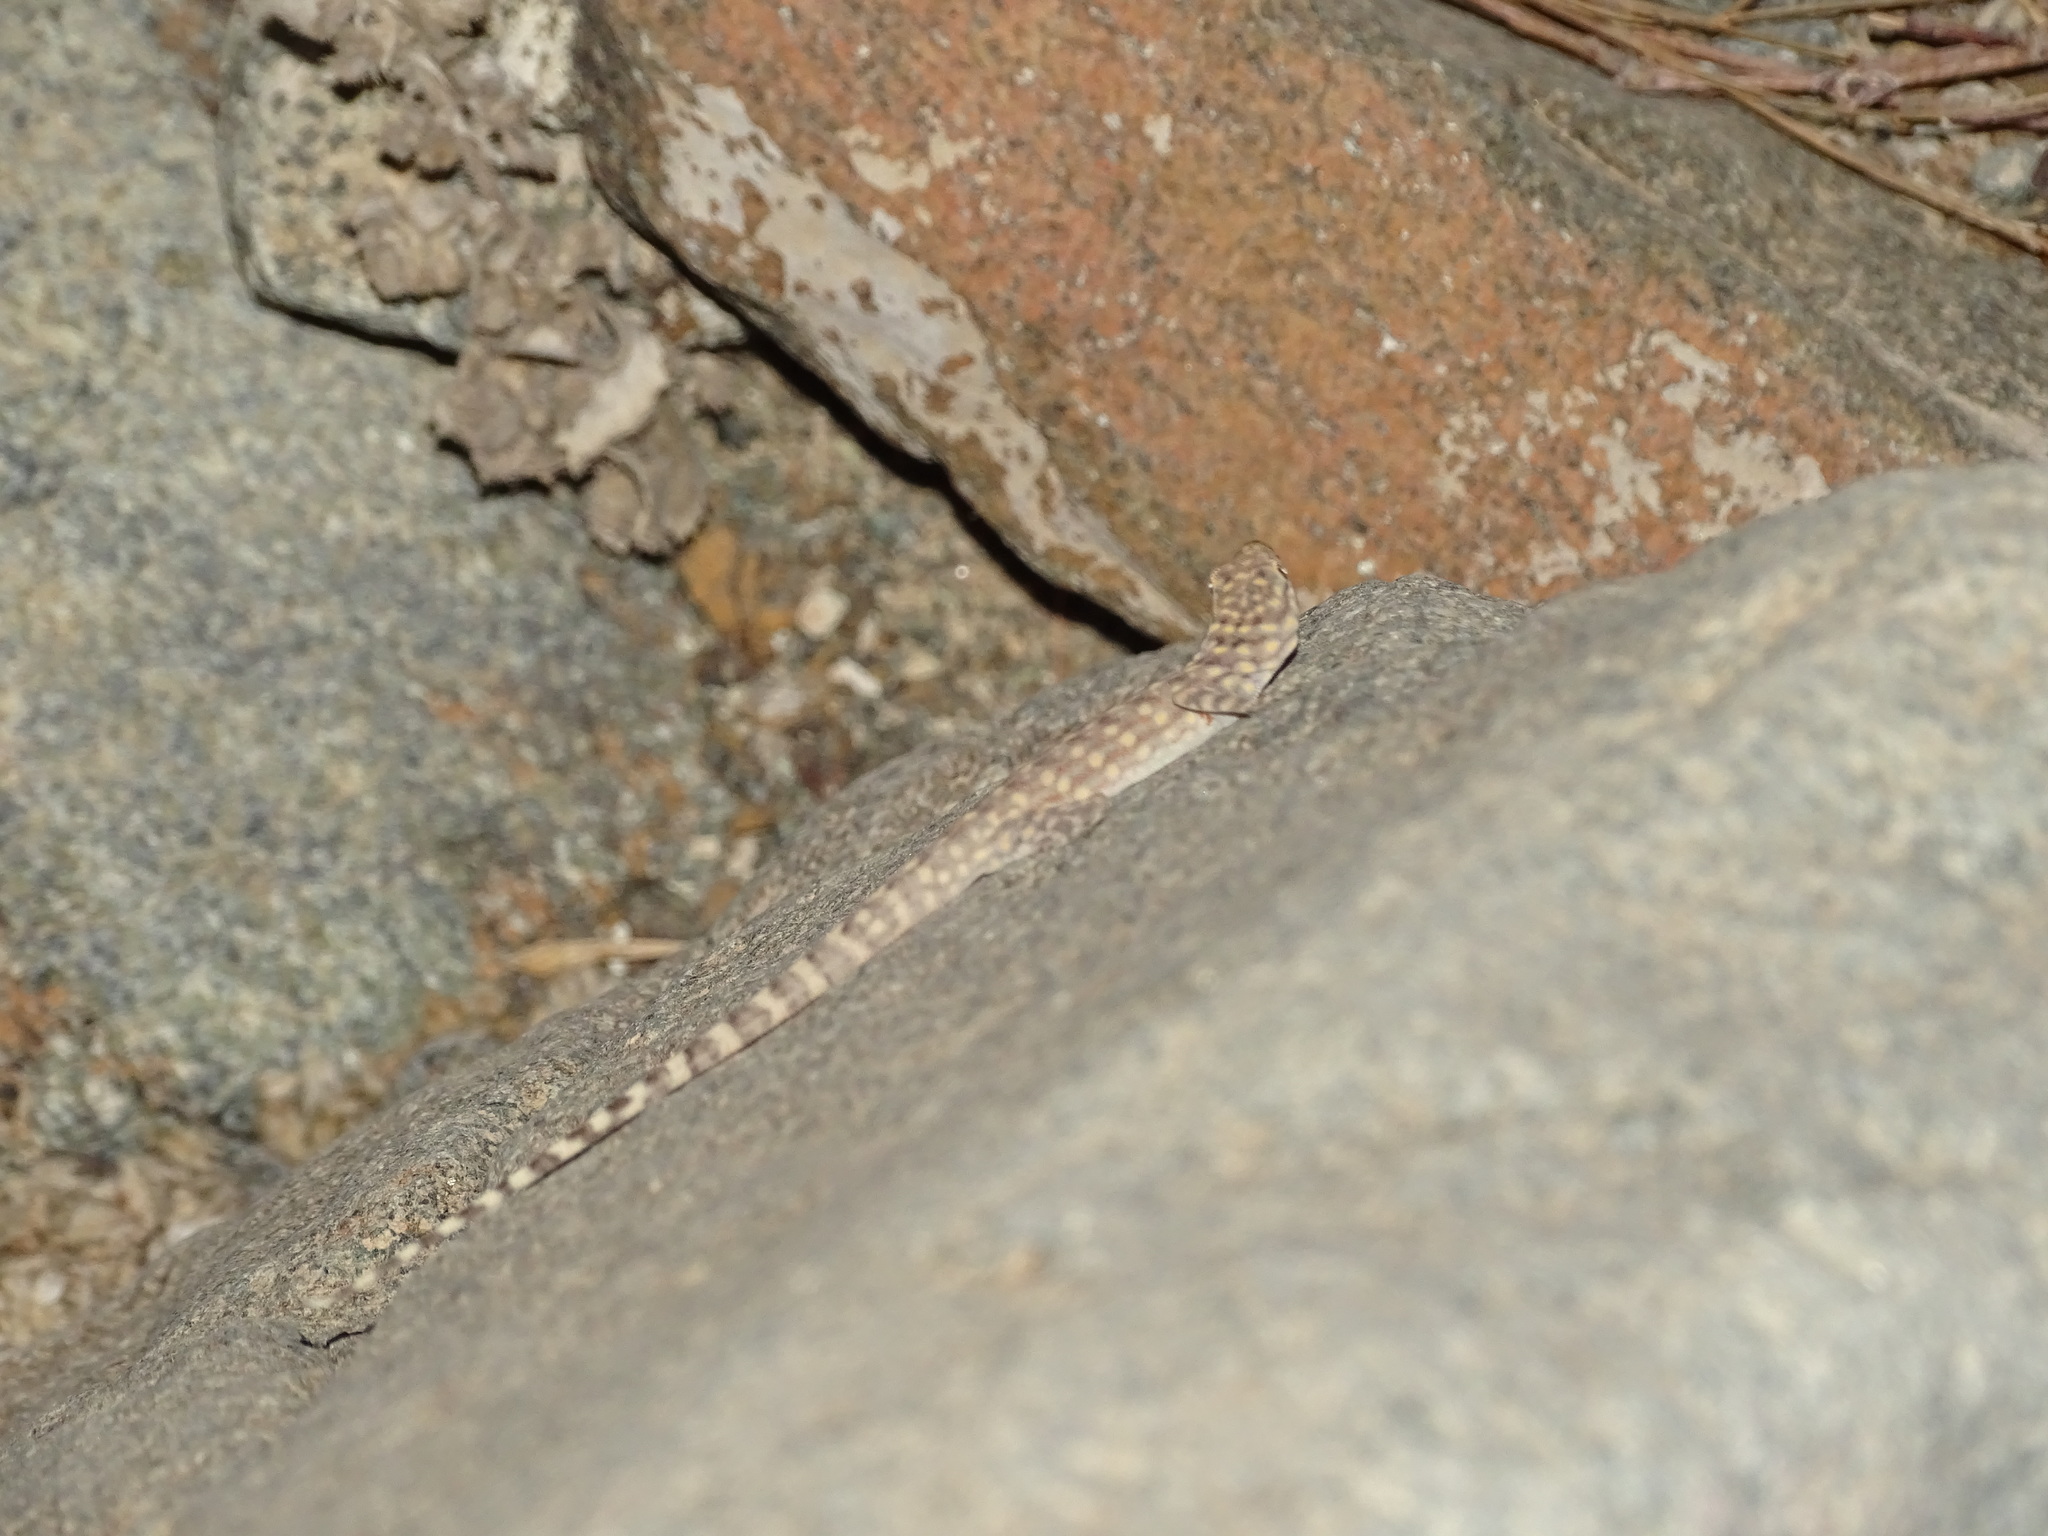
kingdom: Animalia
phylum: Chordata
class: Squamata
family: Sphaerodactylidae
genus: Pristurus
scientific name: Pristurus celerrimus
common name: Bar-tailed semaphore gecko
